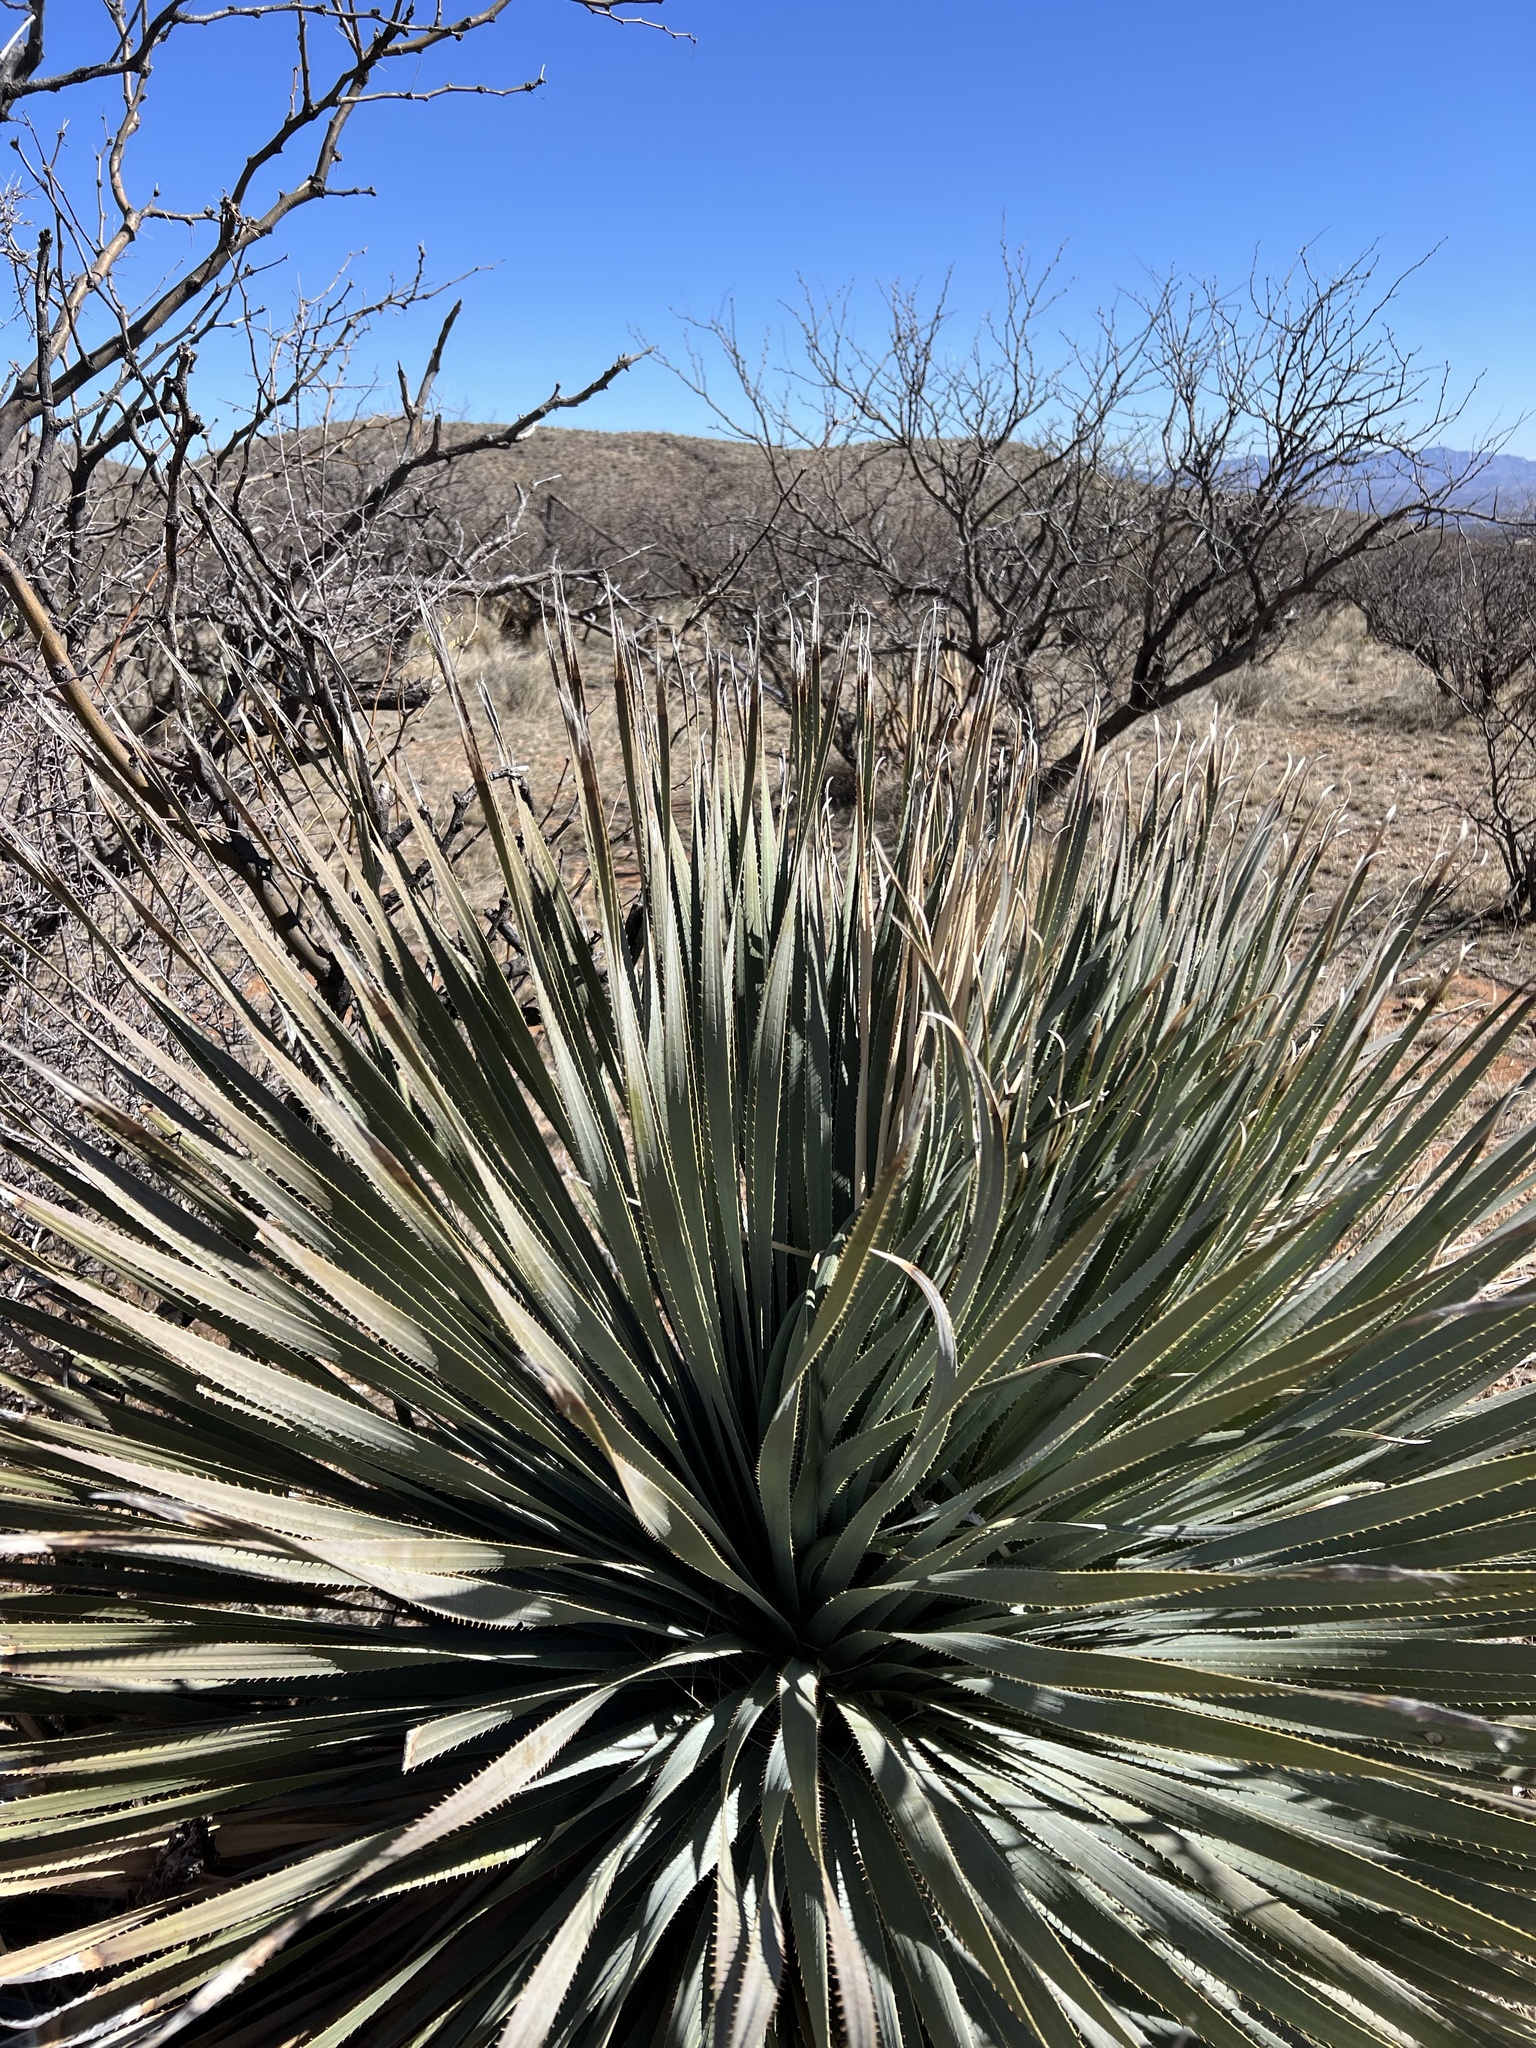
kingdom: Plantae
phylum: Tracheophyta
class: Liliopsida
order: Asparagales
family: Asparagaceae
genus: Dasylirion
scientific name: Dasylirion wheeleri
